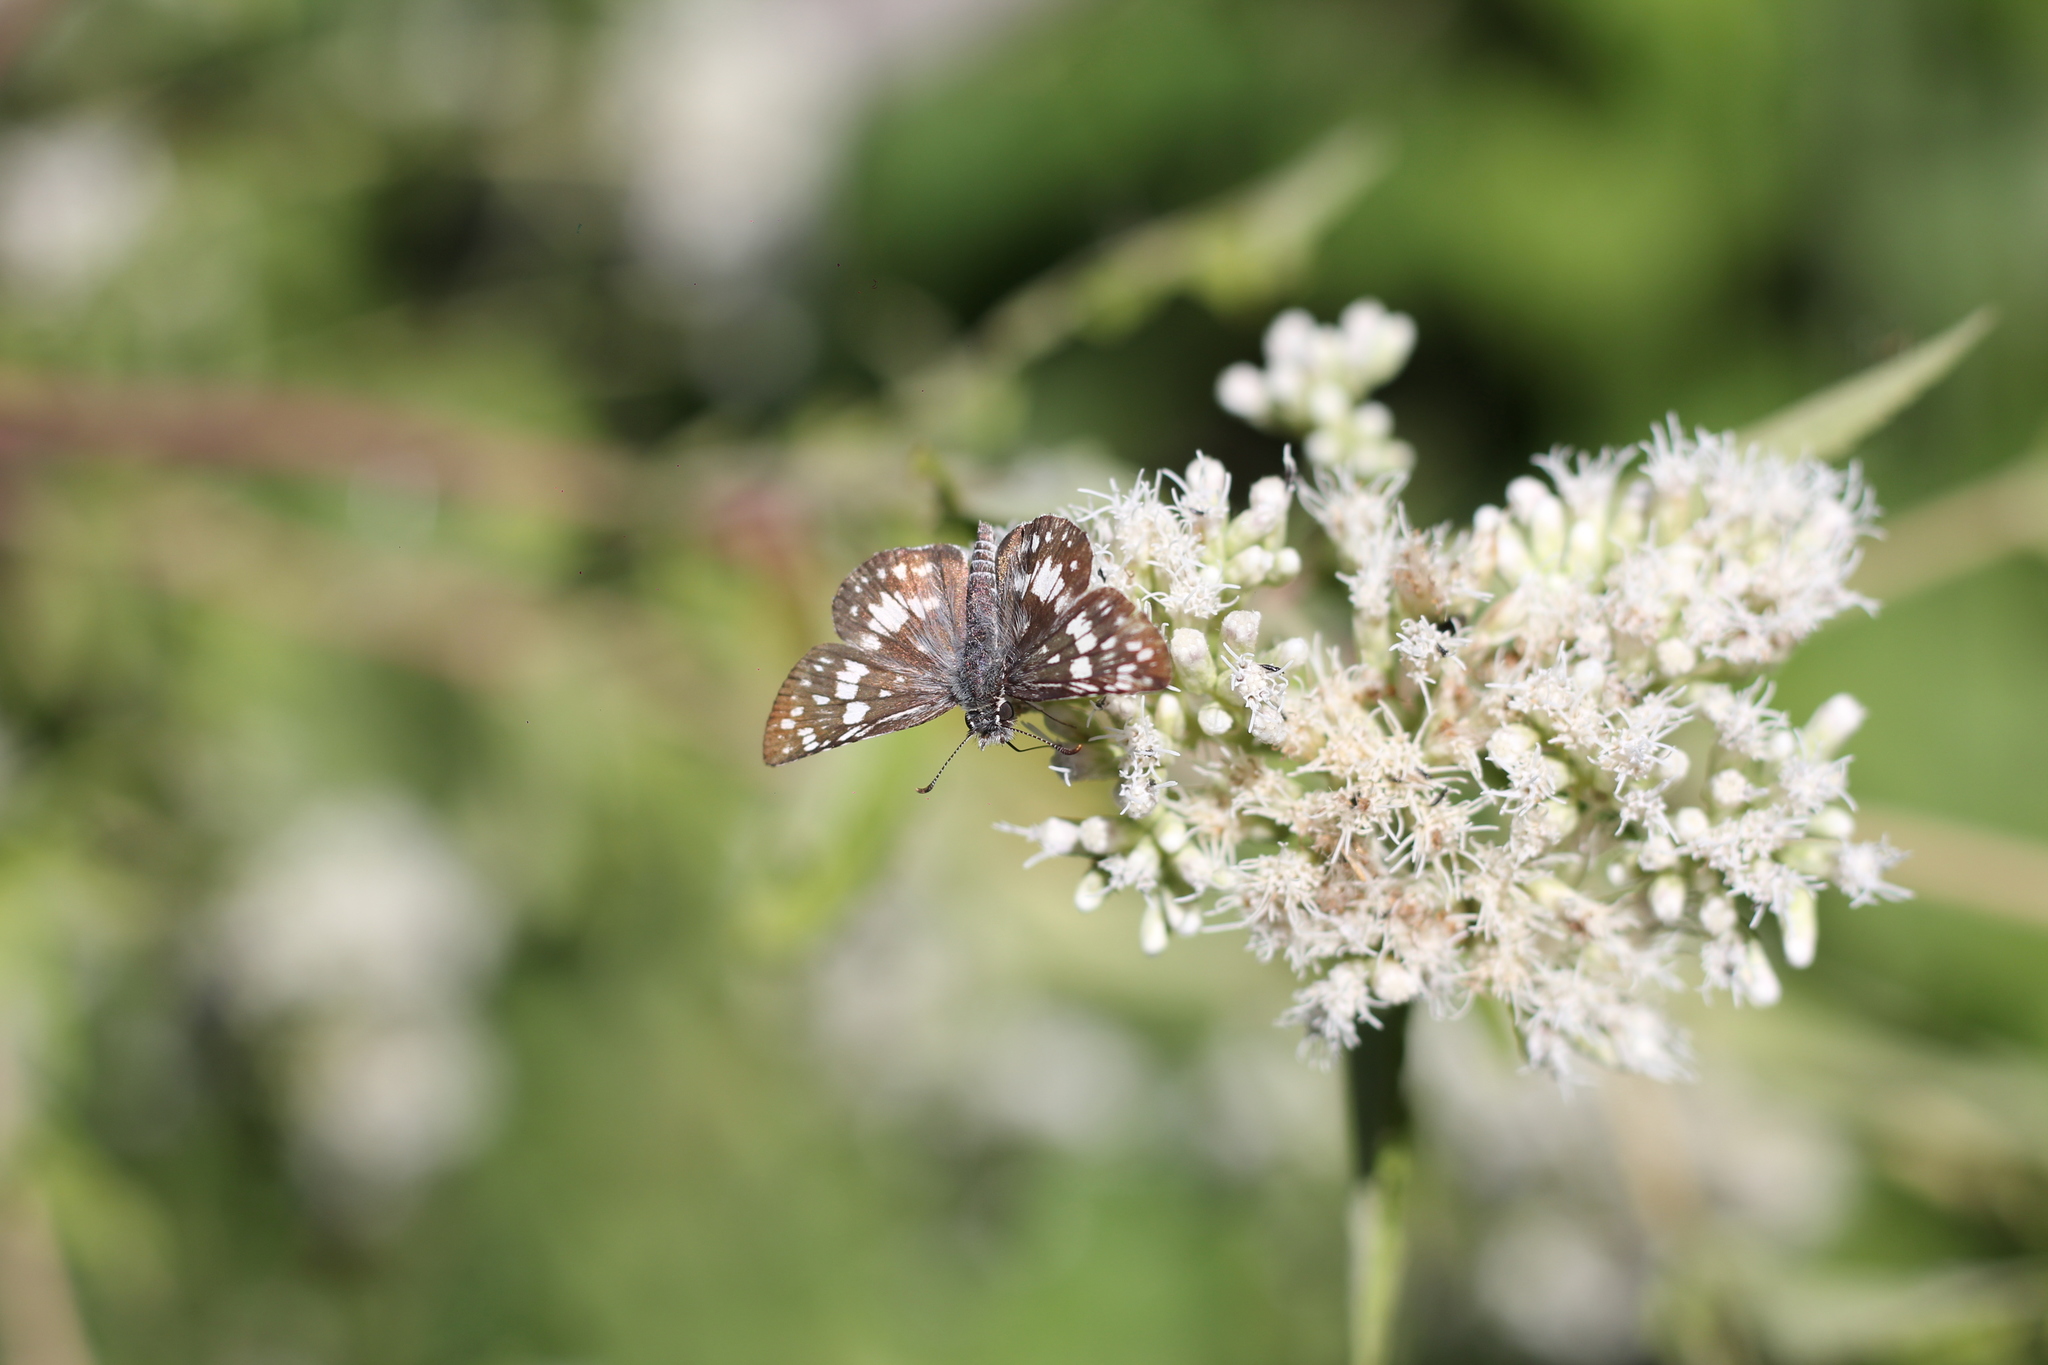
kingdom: Animalia
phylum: Arthropoda
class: Insecta
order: Lepidoptera
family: Hesperiidae
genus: Burnsius
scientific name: Burnsius orcynoides
